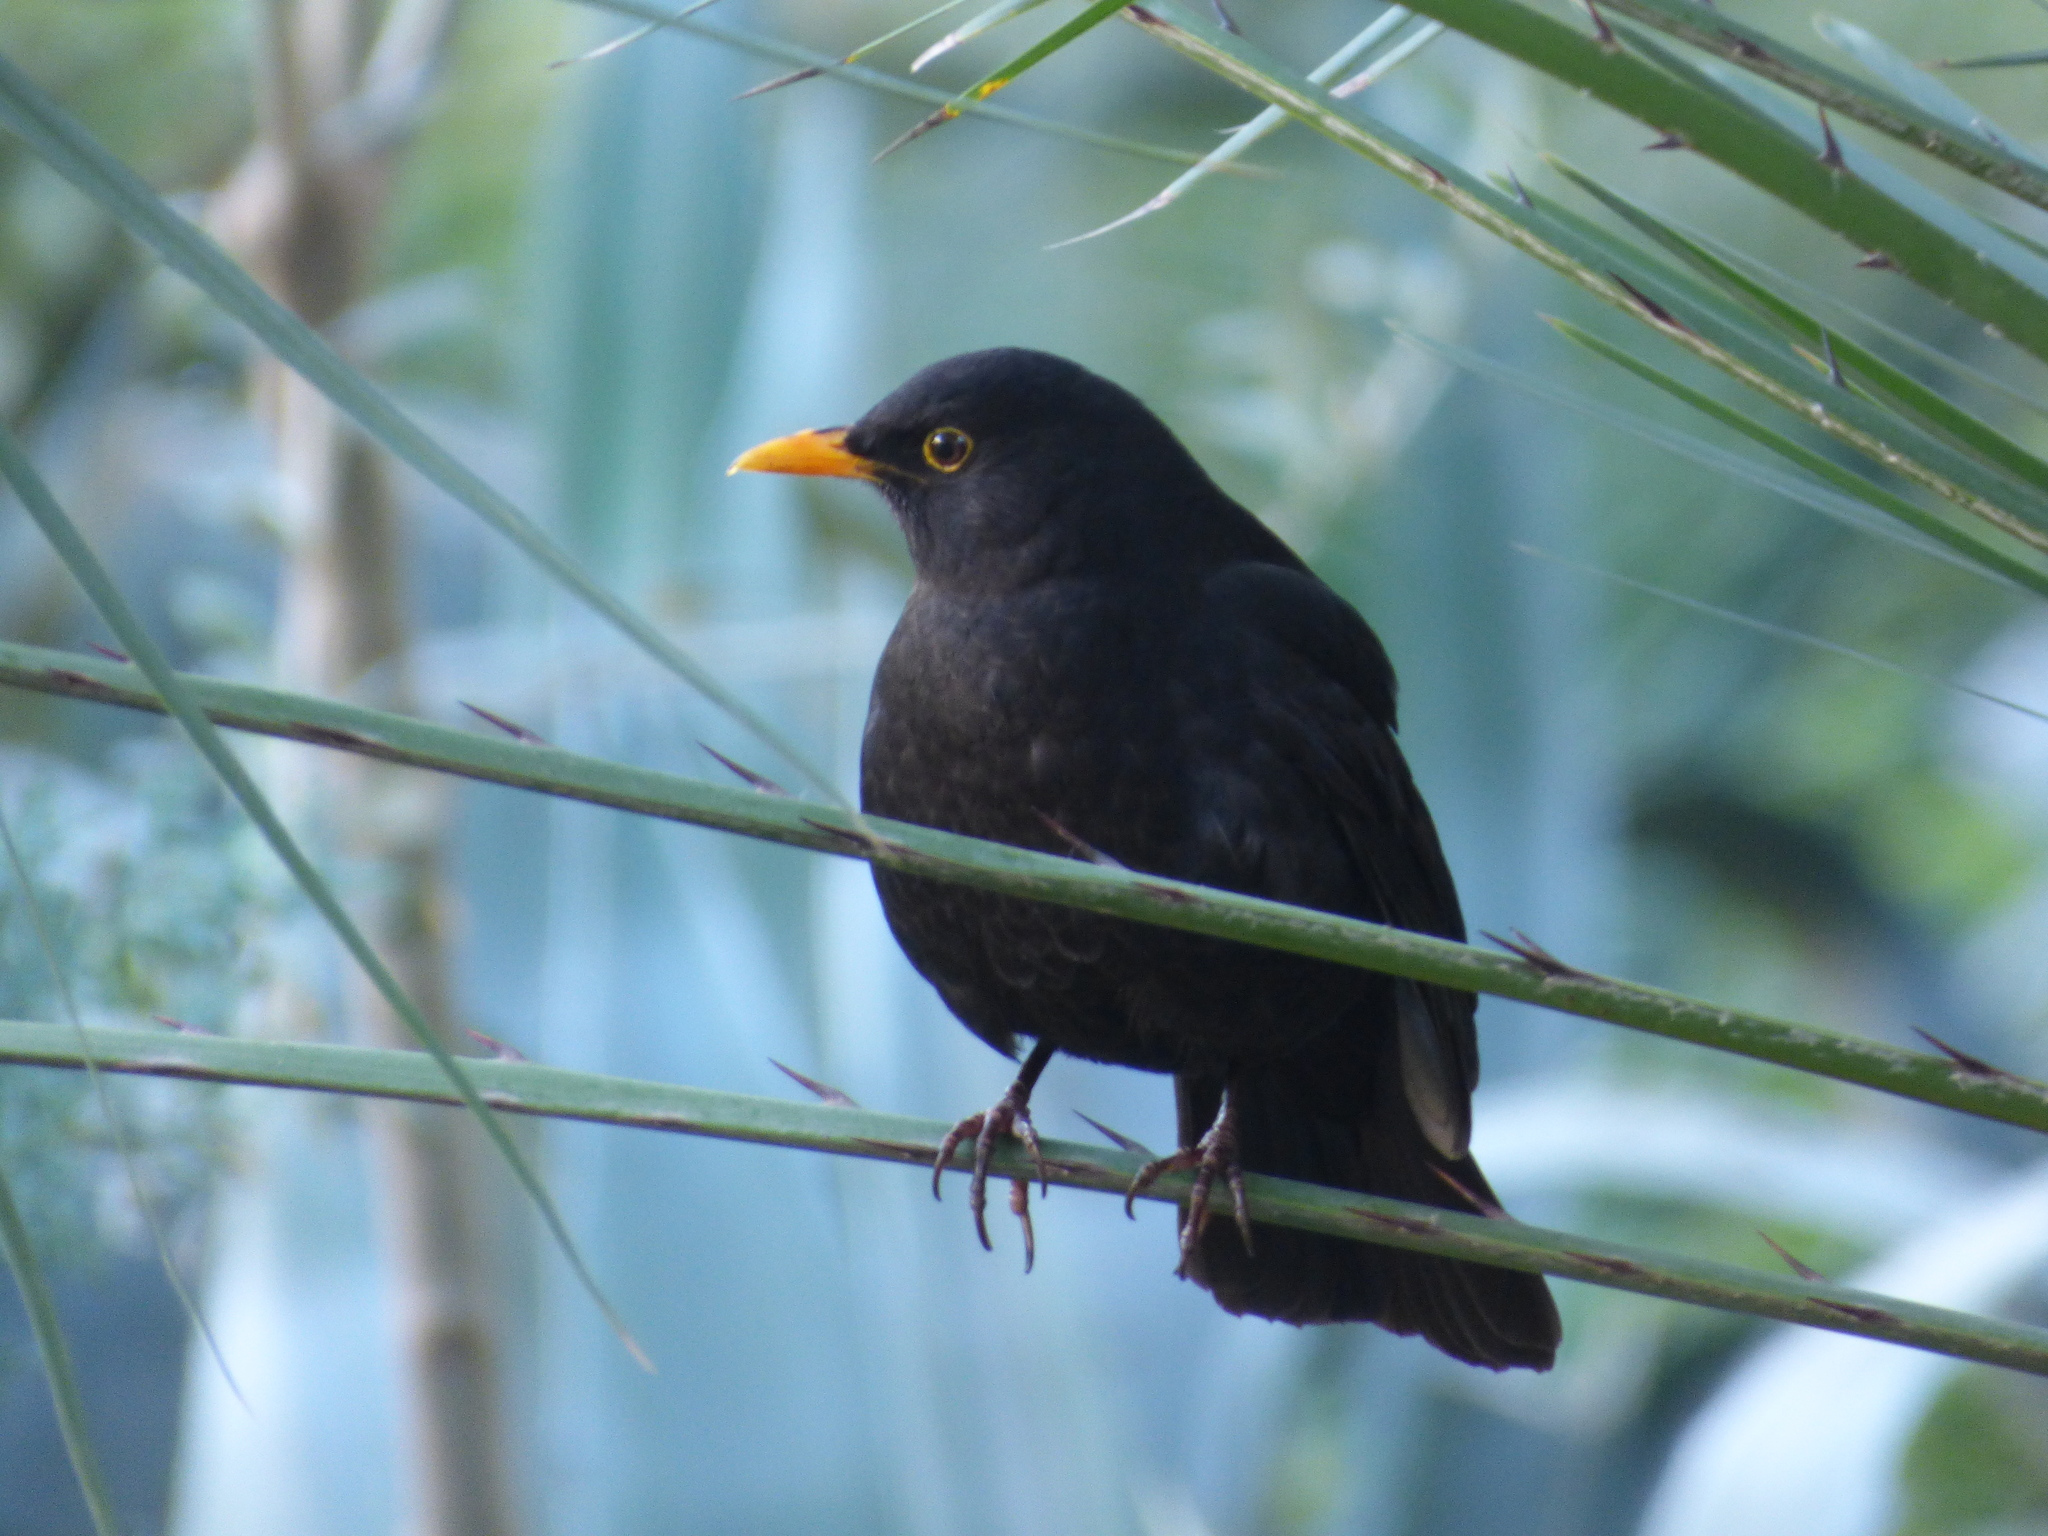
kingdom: Animalia
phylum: Chordata
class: Aves
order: Passeriformes
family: Turdidae
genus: Turdus
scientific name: Turdus merula
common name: Common blackbird
